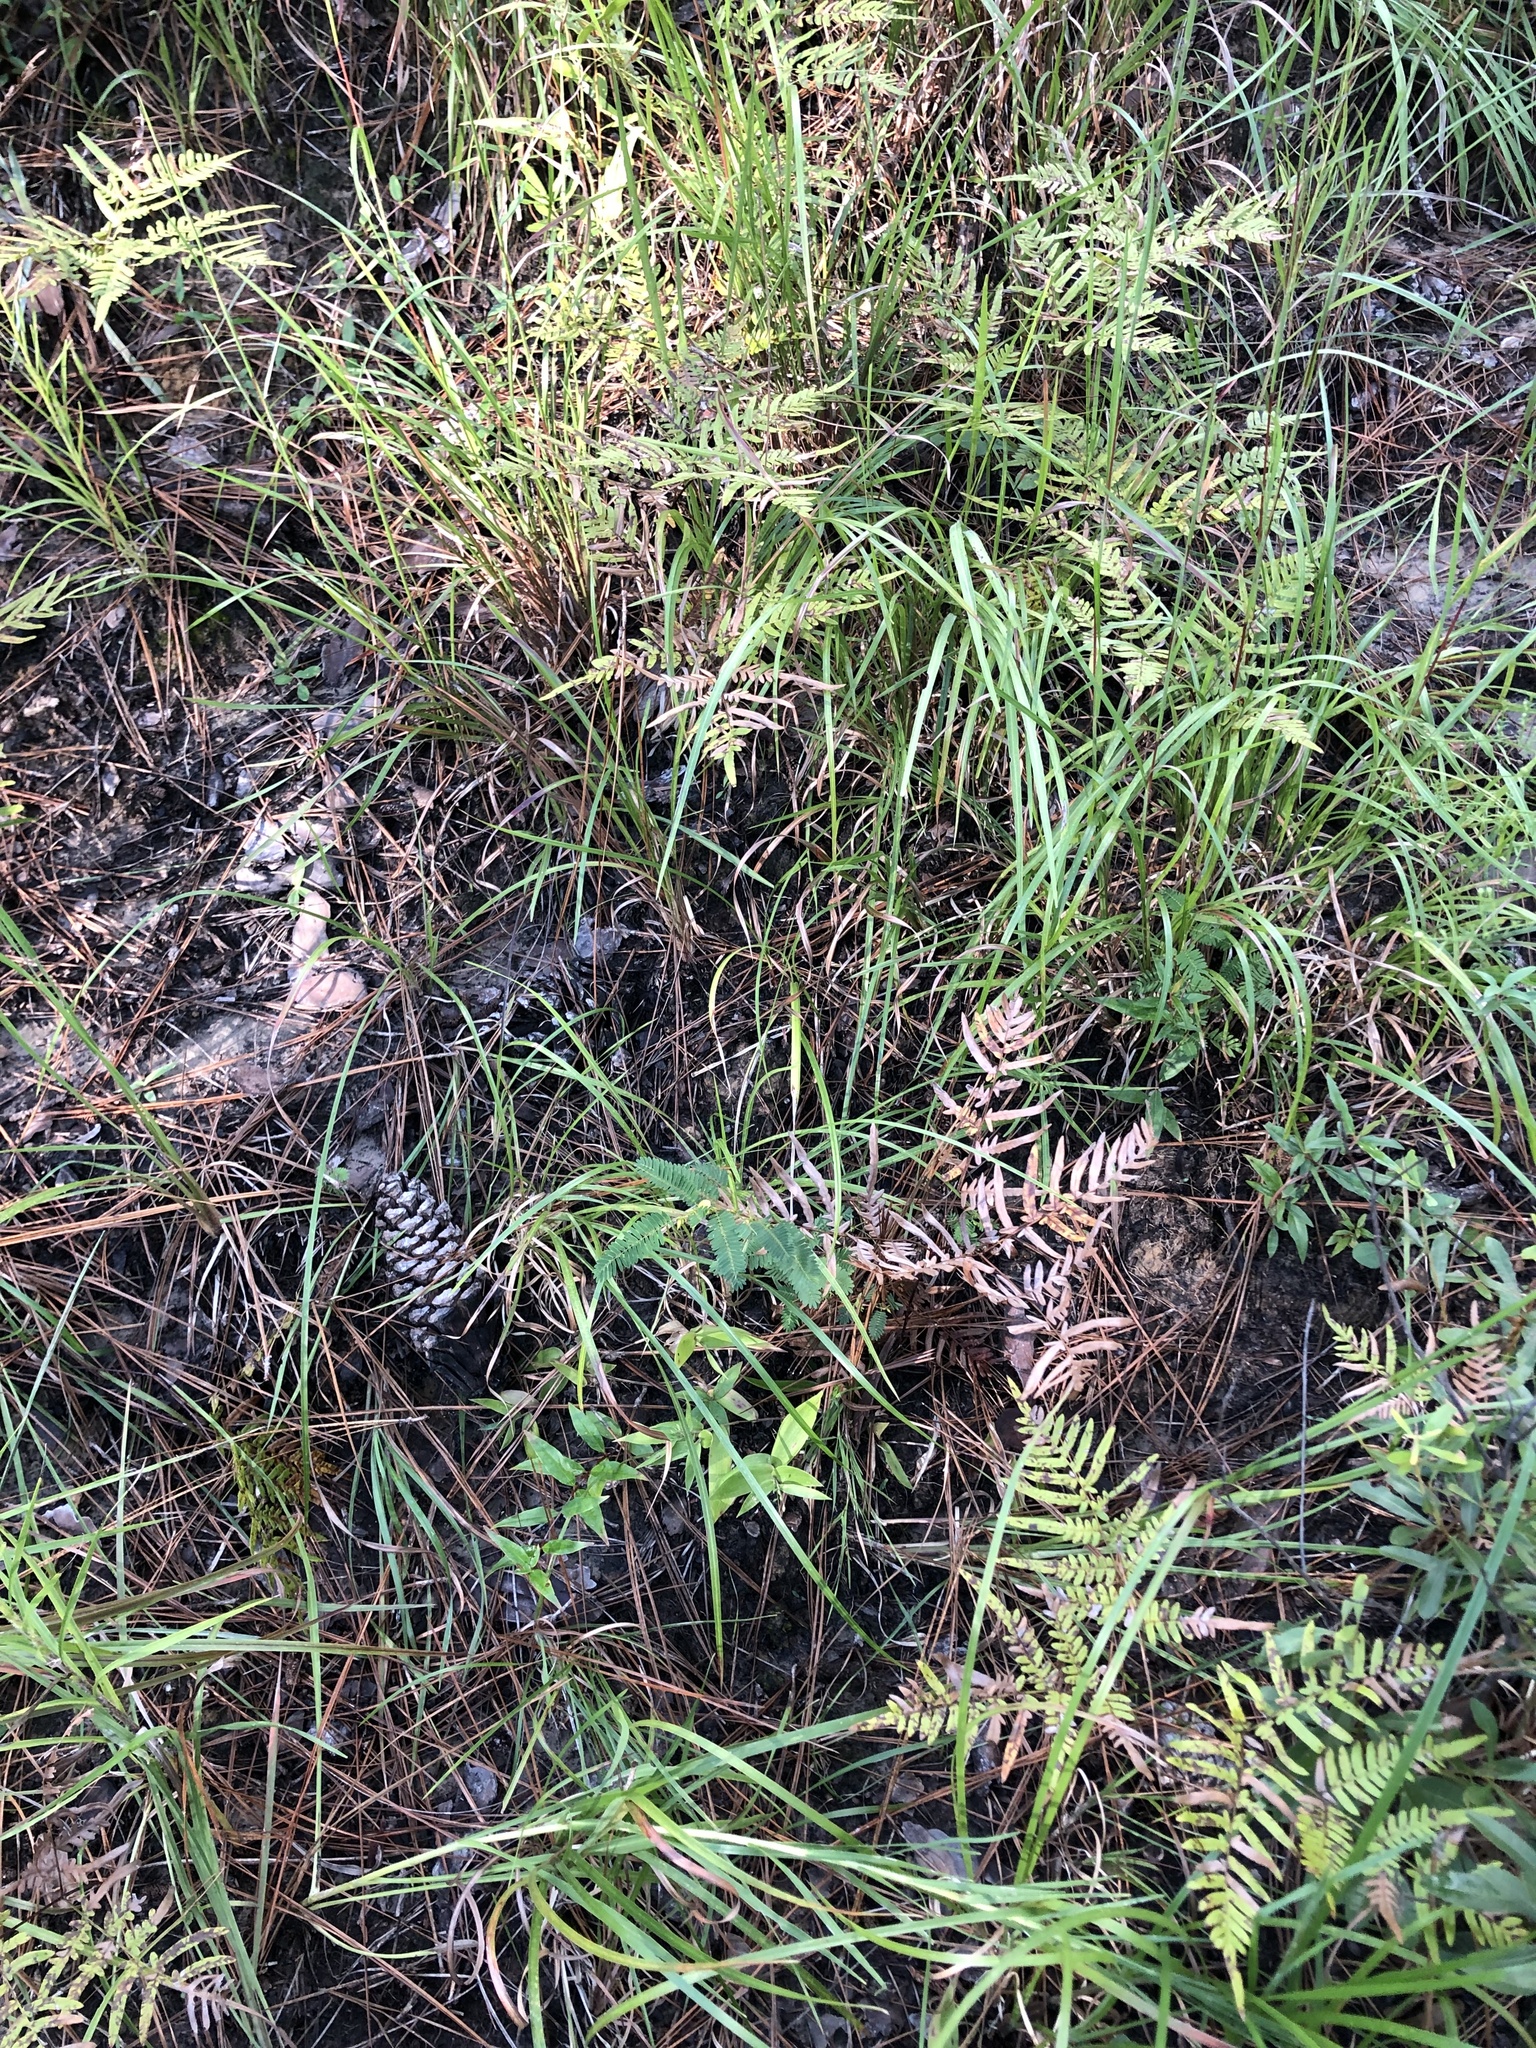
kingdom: Plantae
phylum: Tracheophyta
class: Magnoliopsida
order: Fabales
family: Fabaceae
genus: Chamaecrista
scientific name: Chamaecrista nictitans
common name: Sensitive cassia
